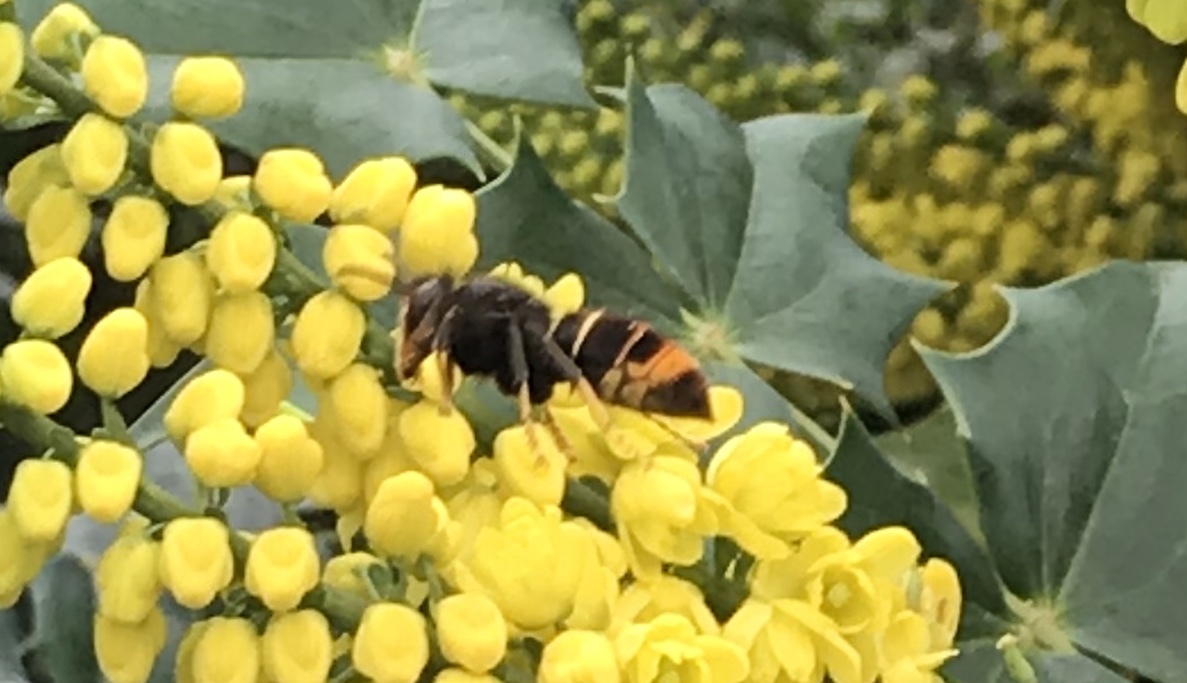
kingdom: Animalia
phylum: Arthropoda
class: Insecta
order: Hymenoptera
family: Vespidae
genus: Vespa
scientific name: Vespa velutina
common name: Asian hornet
